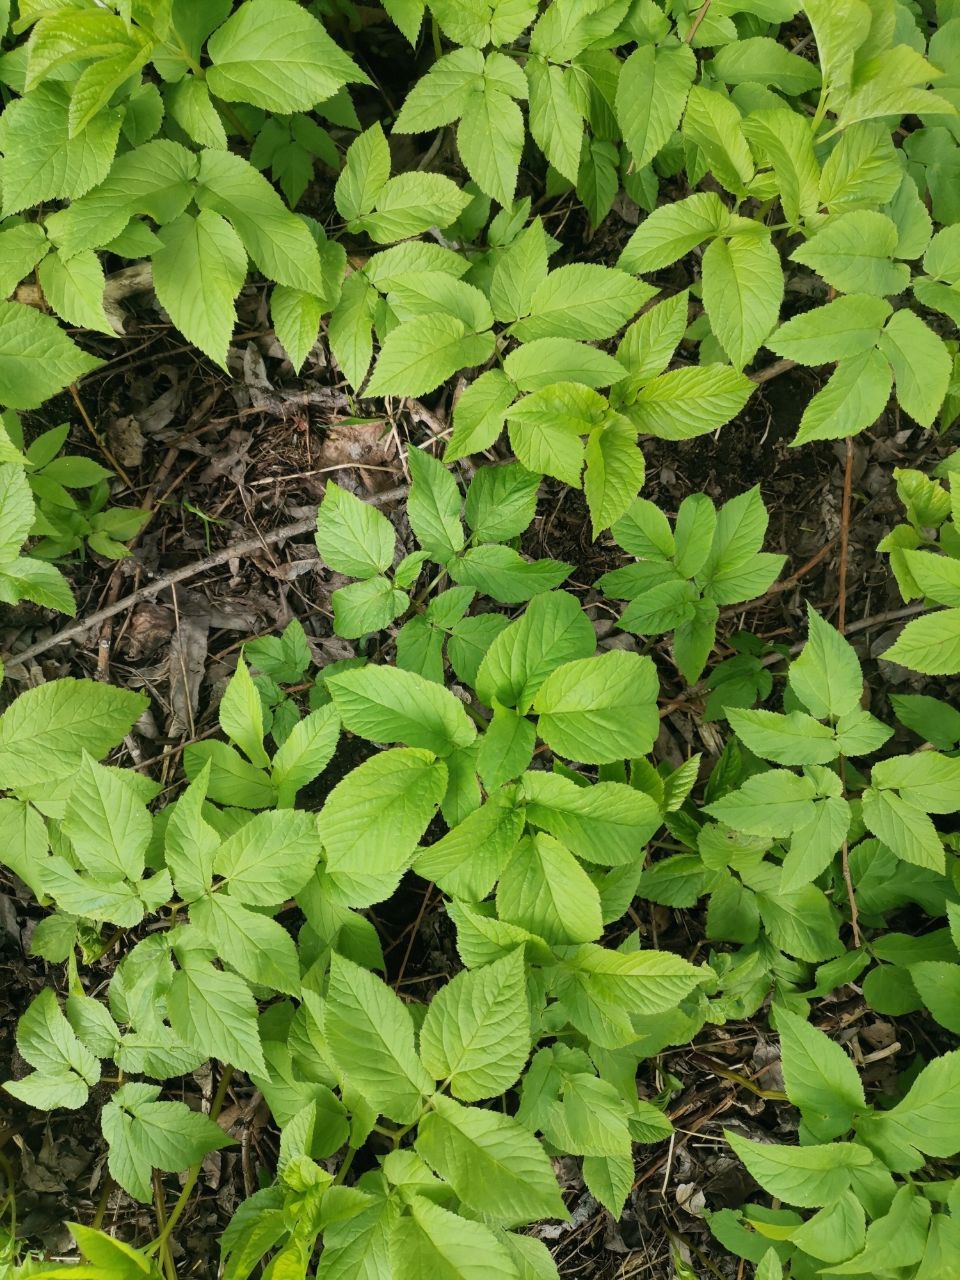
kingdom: Plantae
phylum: Tracheophyta
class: Magnoliopsida
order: Apiales
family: Apiaceae
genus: Aegopodium
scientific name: Aegopodium podagraria
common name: Ground-elder
